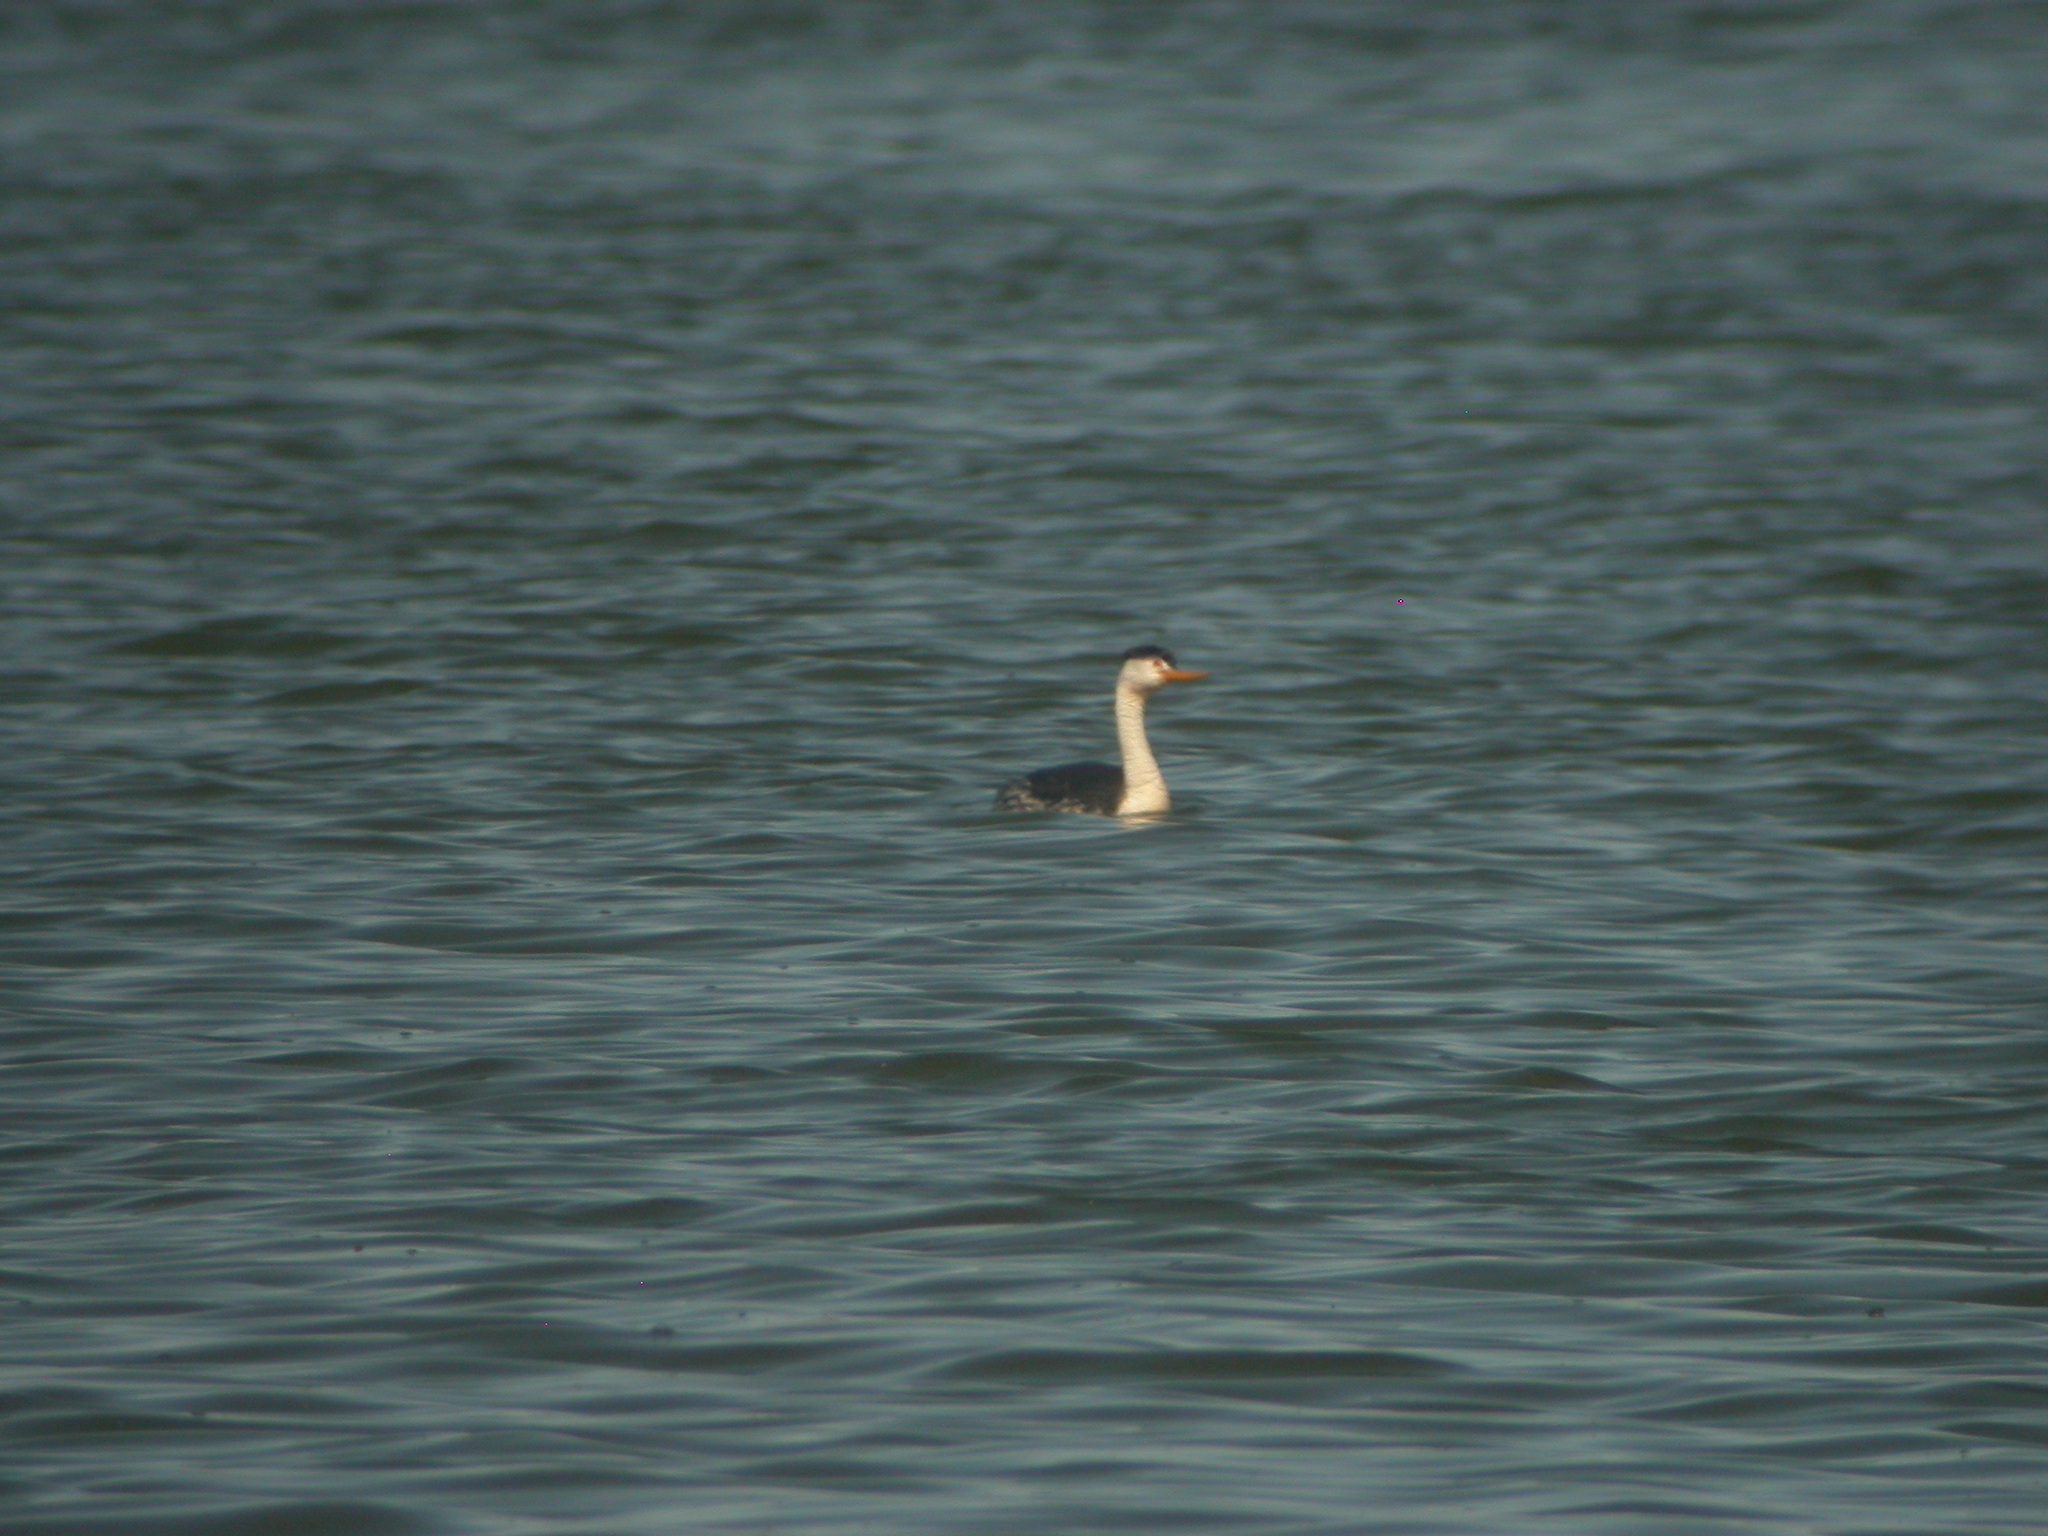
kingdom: Animalia
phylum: Chordata
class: Aves
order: Podicipediformes
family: Podicipedidae
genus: Aechmophorus
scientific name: Aechmophorus clarkii
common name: Clark's grebe
